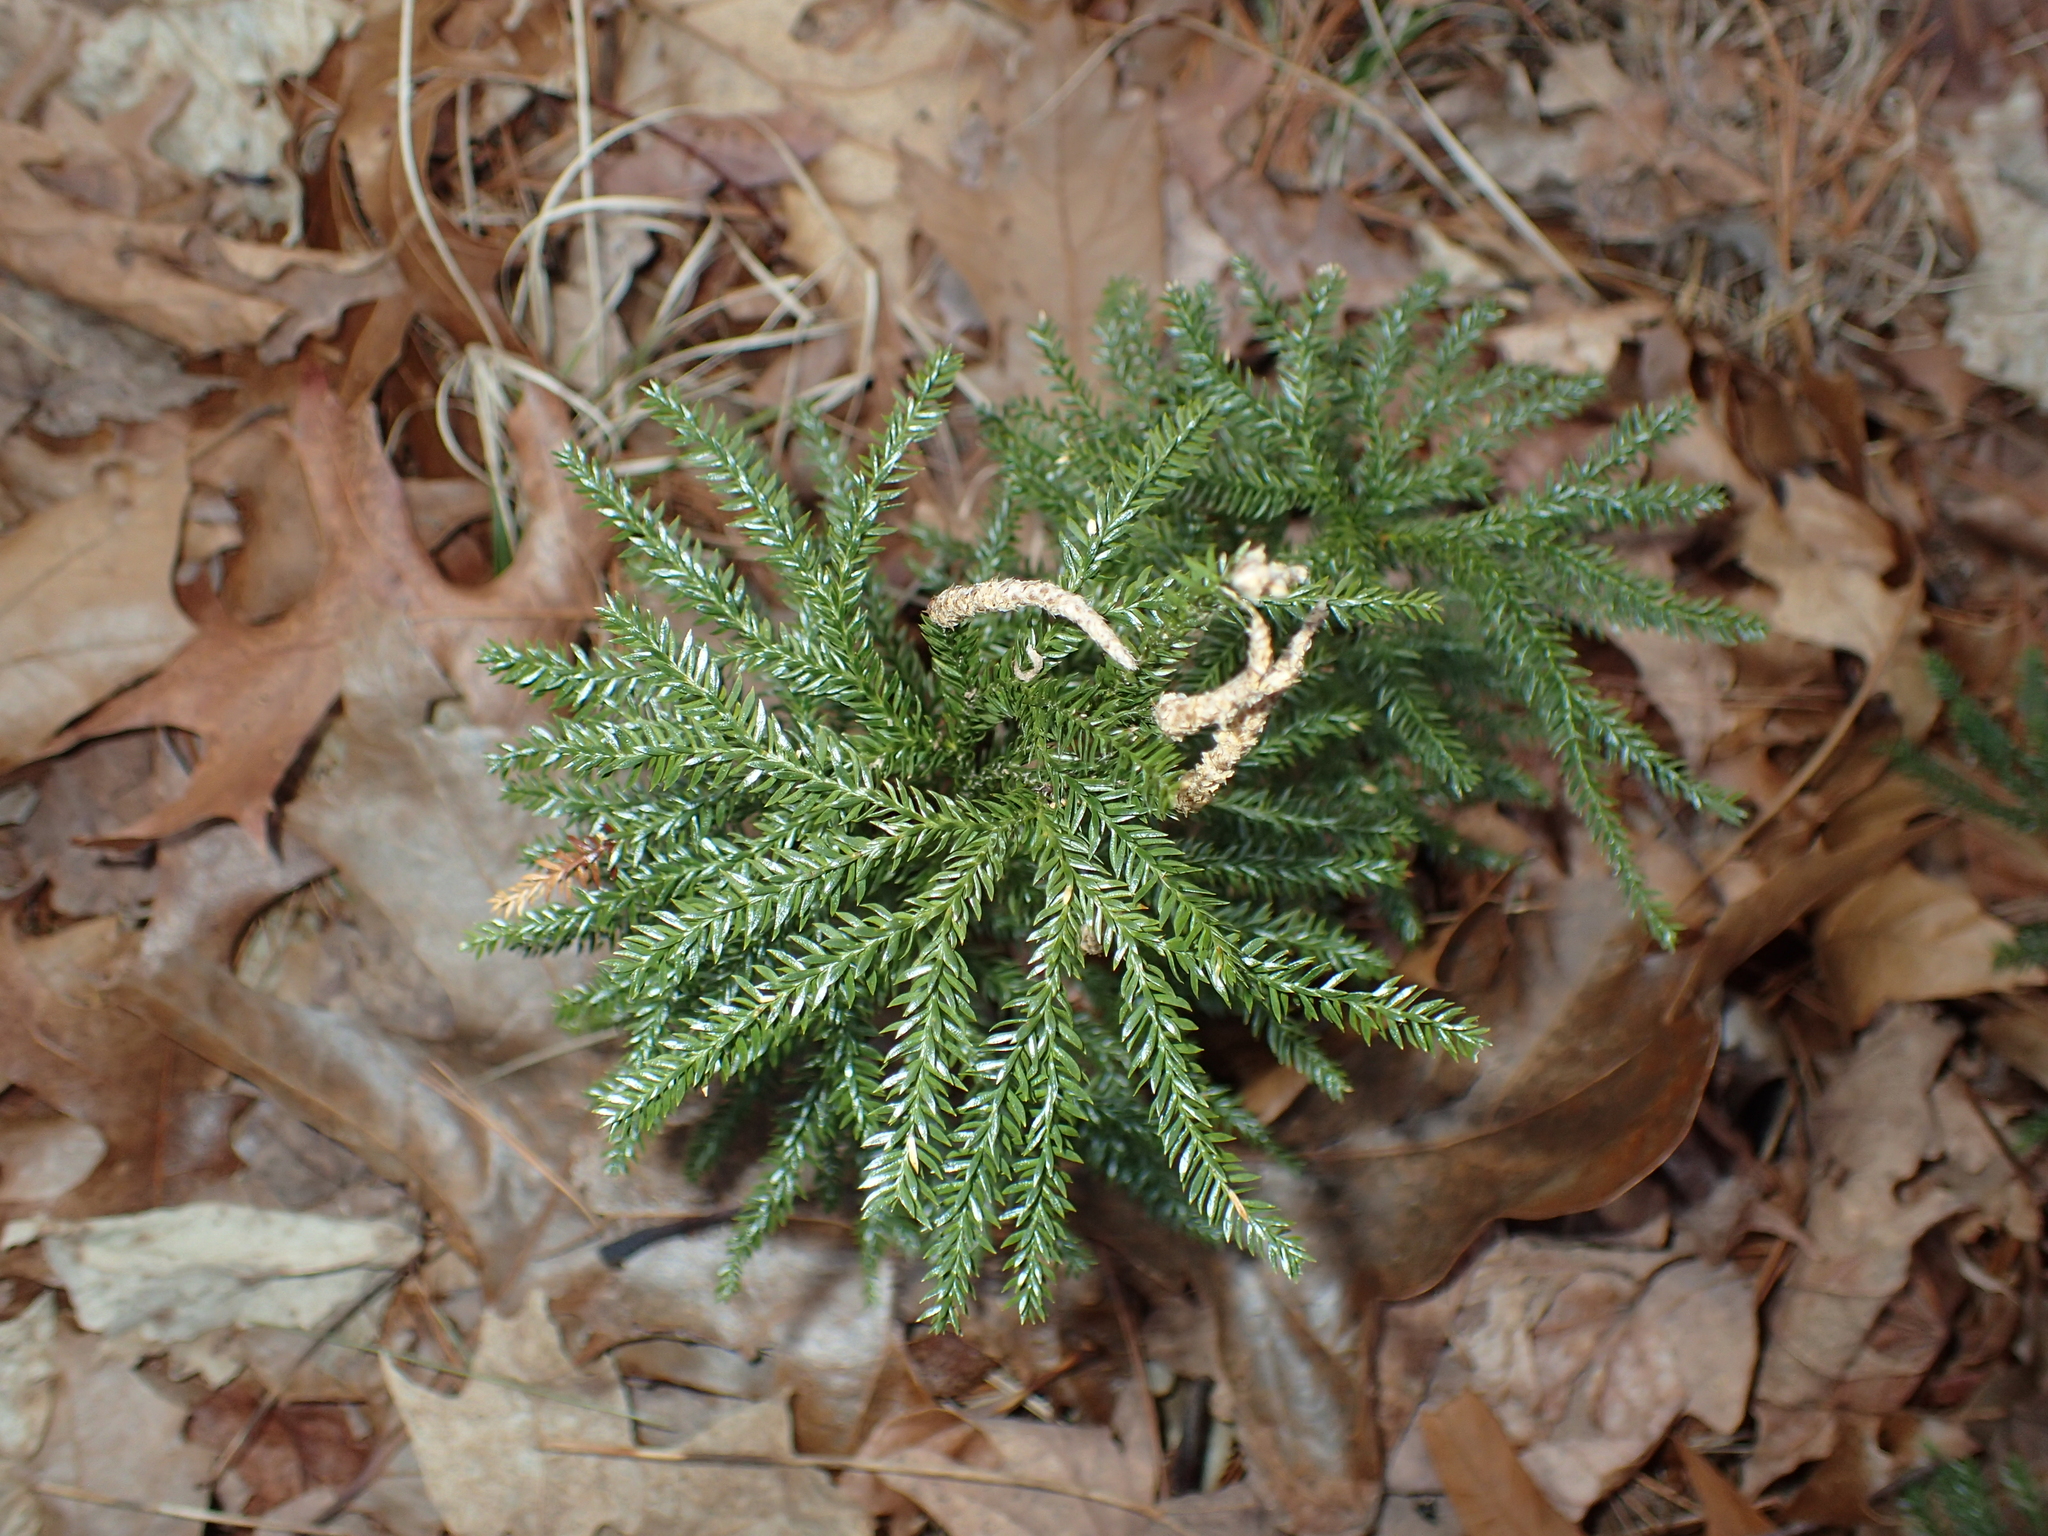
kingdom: Plantae
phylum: Tracheophyta
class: Lycopodiopsida
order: Lycopodiales
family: Lycopodiaceae
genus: Dendrolycopodium
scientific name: Dendrolycopodium obscurum
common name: Common ground-pine
